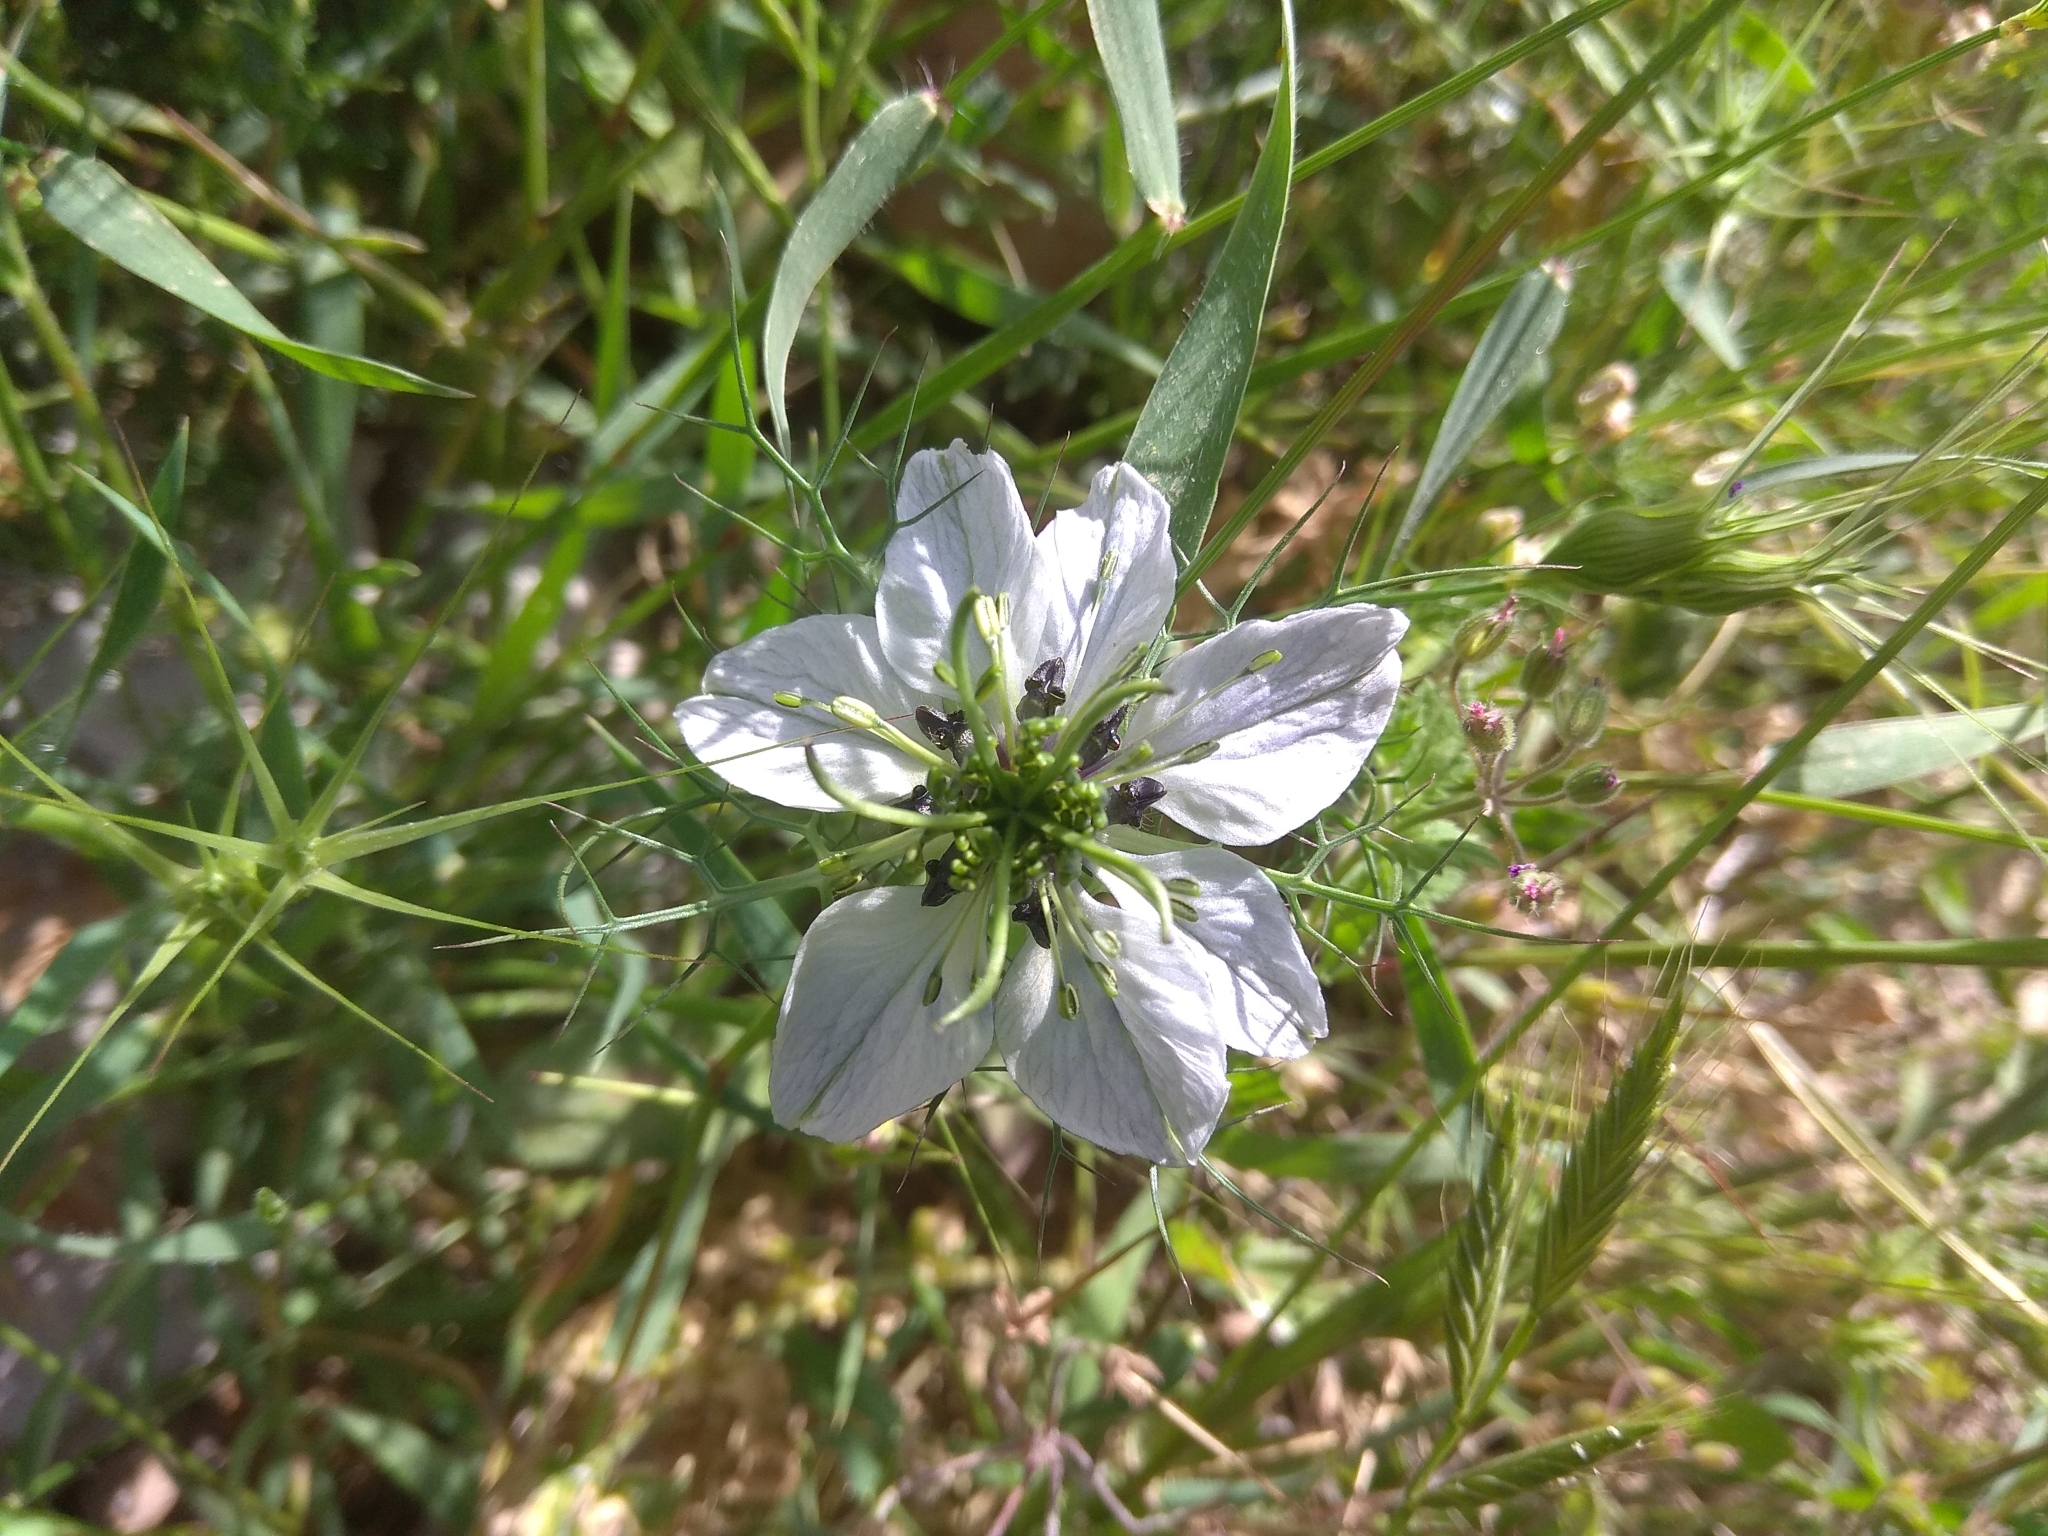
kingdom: Plantae
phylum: Tracheophyta
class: Magnoliopsida
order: Ranunculales
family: Ranunculaceae
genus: Nigella
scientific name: Nigella damascena
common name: Love-in-a-mist
